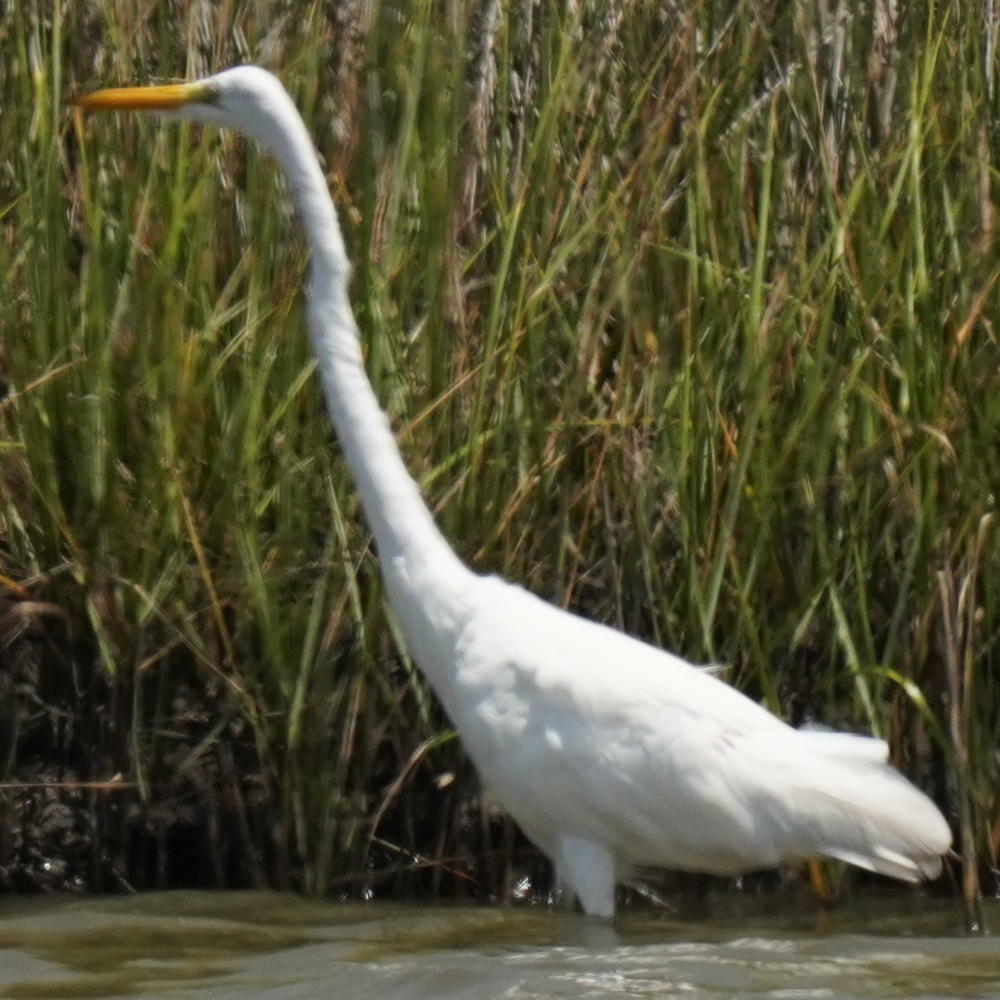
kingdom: Animalia
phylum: Chordata
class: Aves
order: Pelecaniformes
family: Ardeidae
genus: Ardea
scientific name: Ardea alba
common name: Great egret
